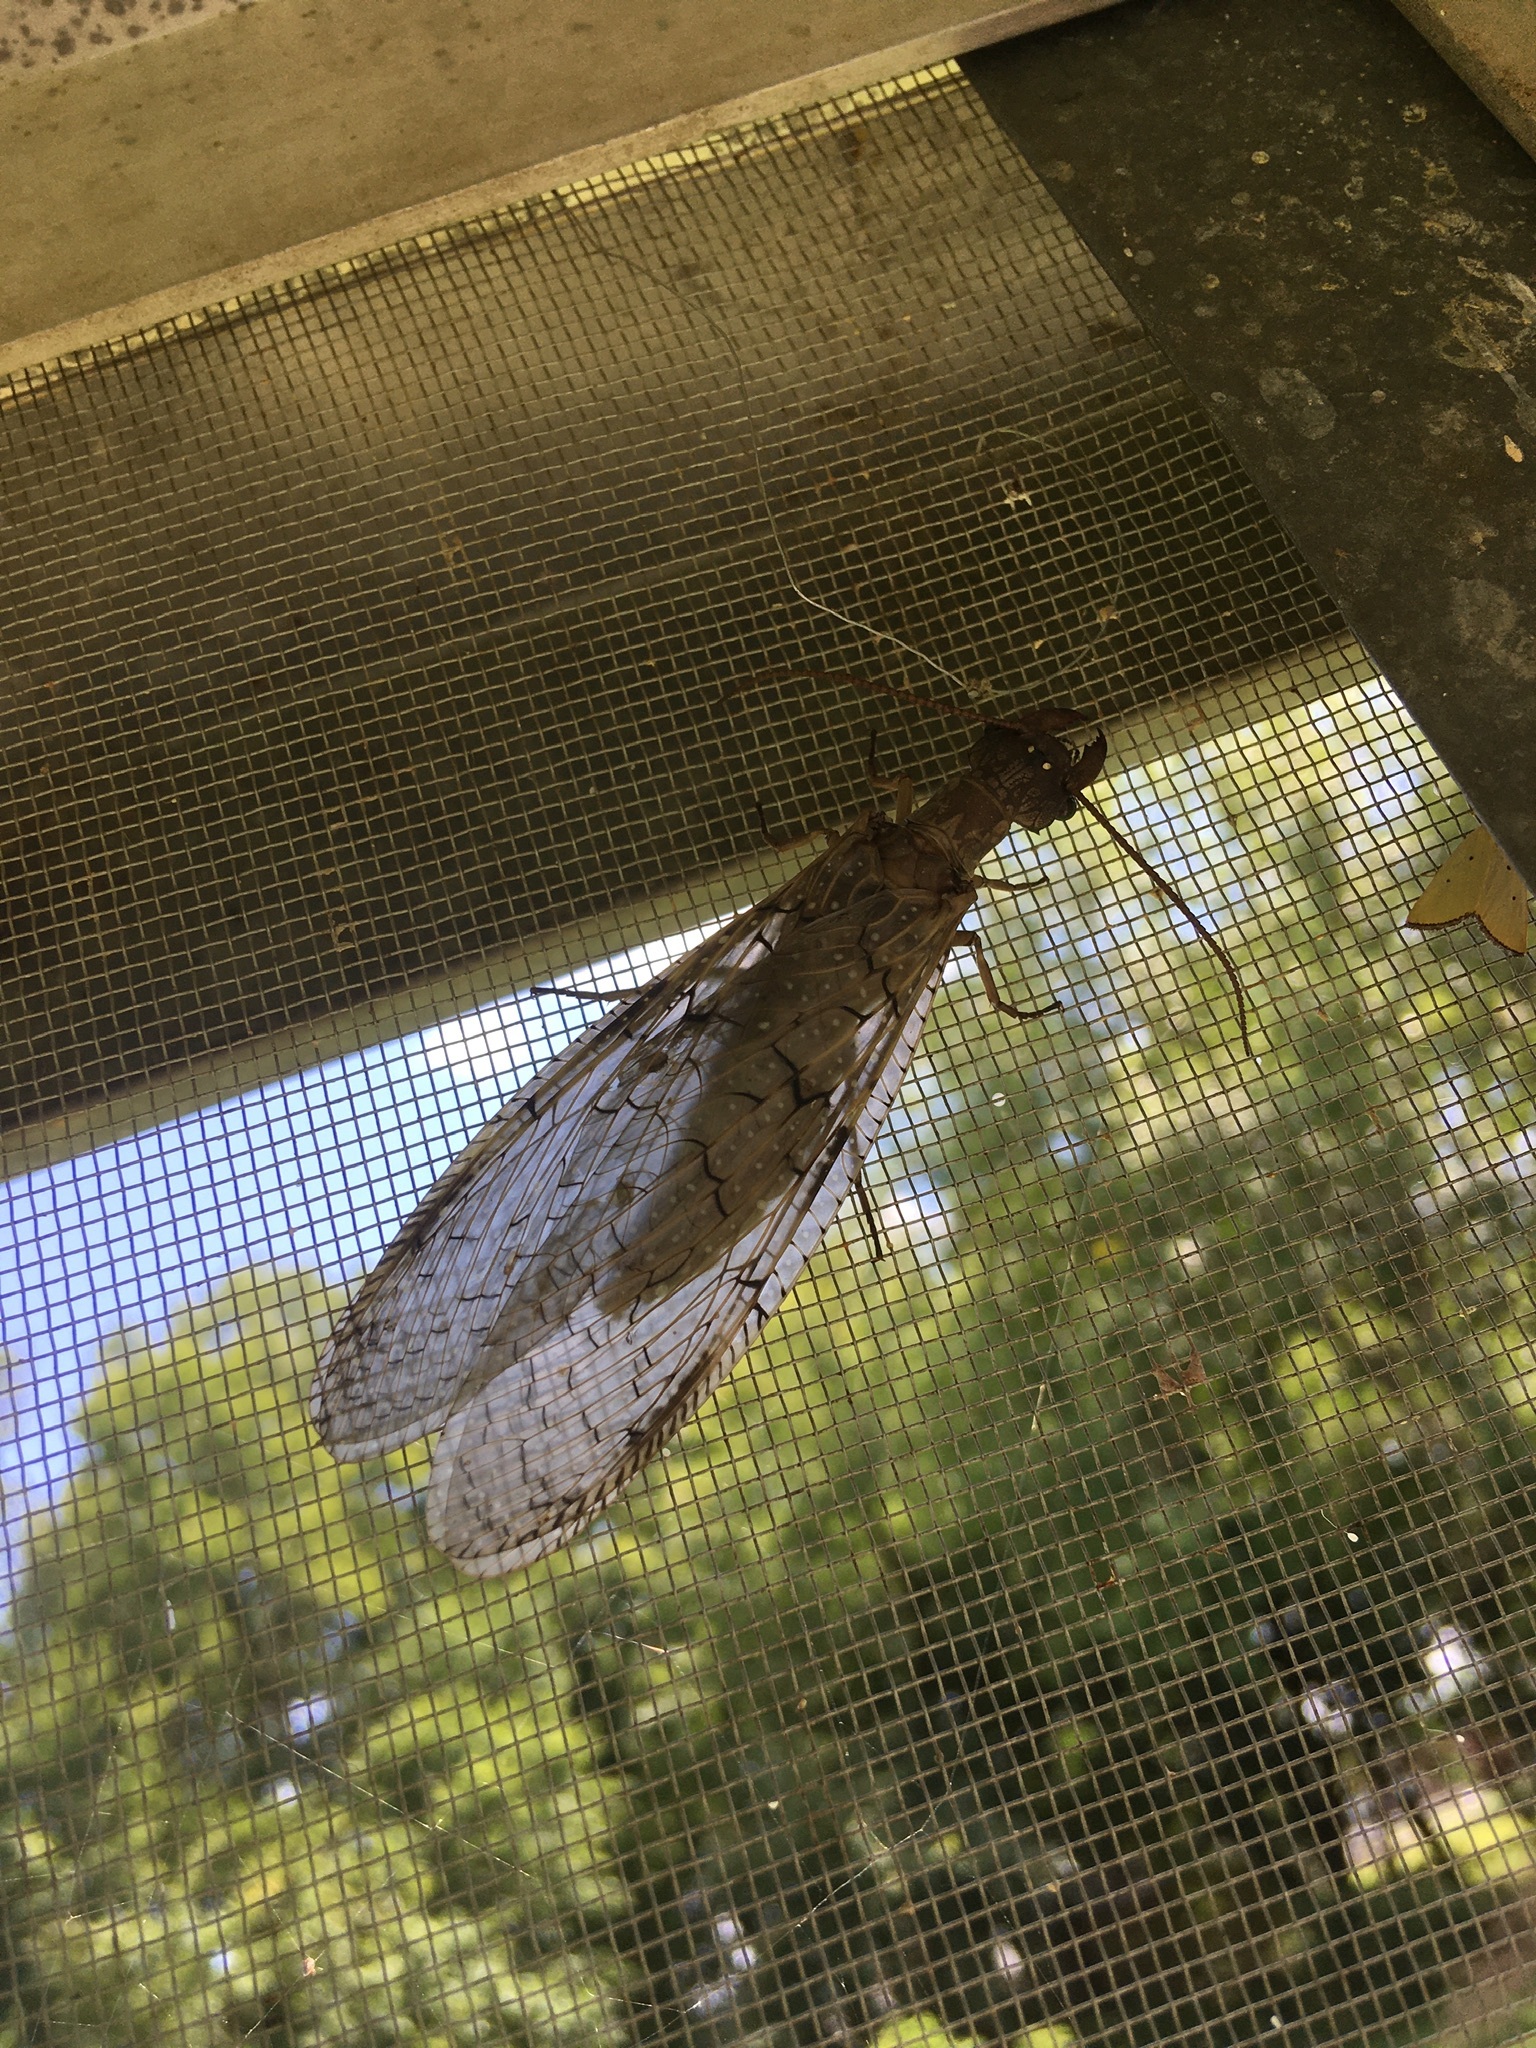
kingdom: Animalia
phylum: Arthropoda
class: Insecta
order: Megaloptera
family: Corydalidae
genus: Corydalus
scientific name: Corydalus cornutus
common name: Dobsonfly
